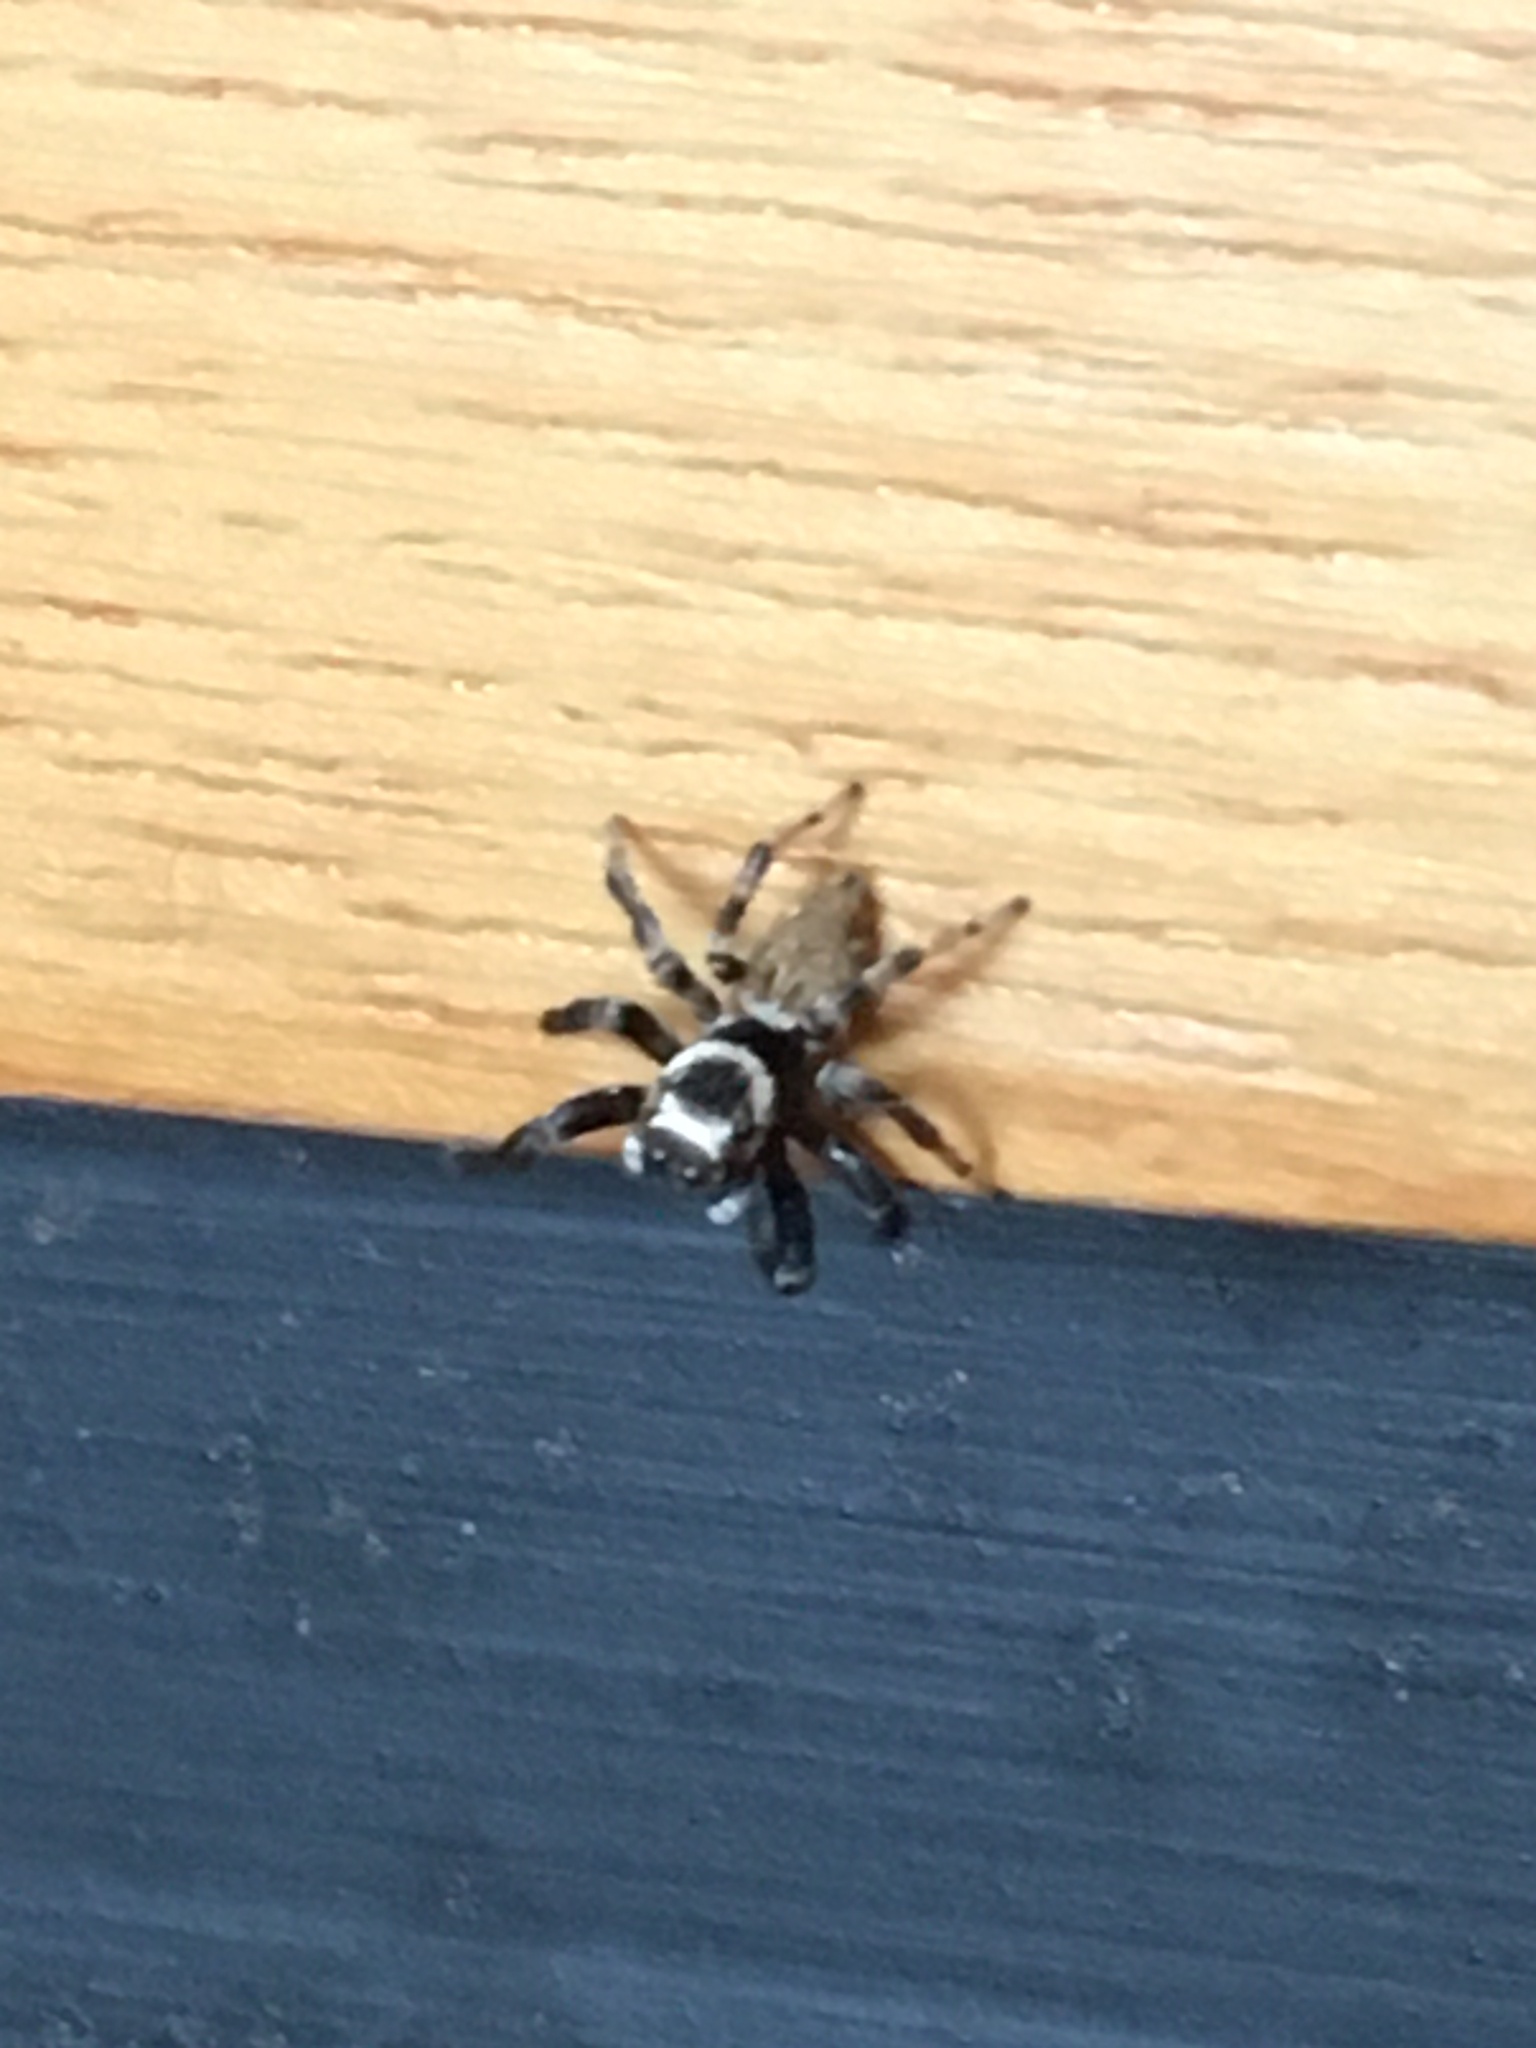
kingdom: Animalia
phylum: Arthropoda
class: Arachnida
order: Araneae
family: Salticidae
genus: Evarcha
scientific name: Evarcha jucunda
